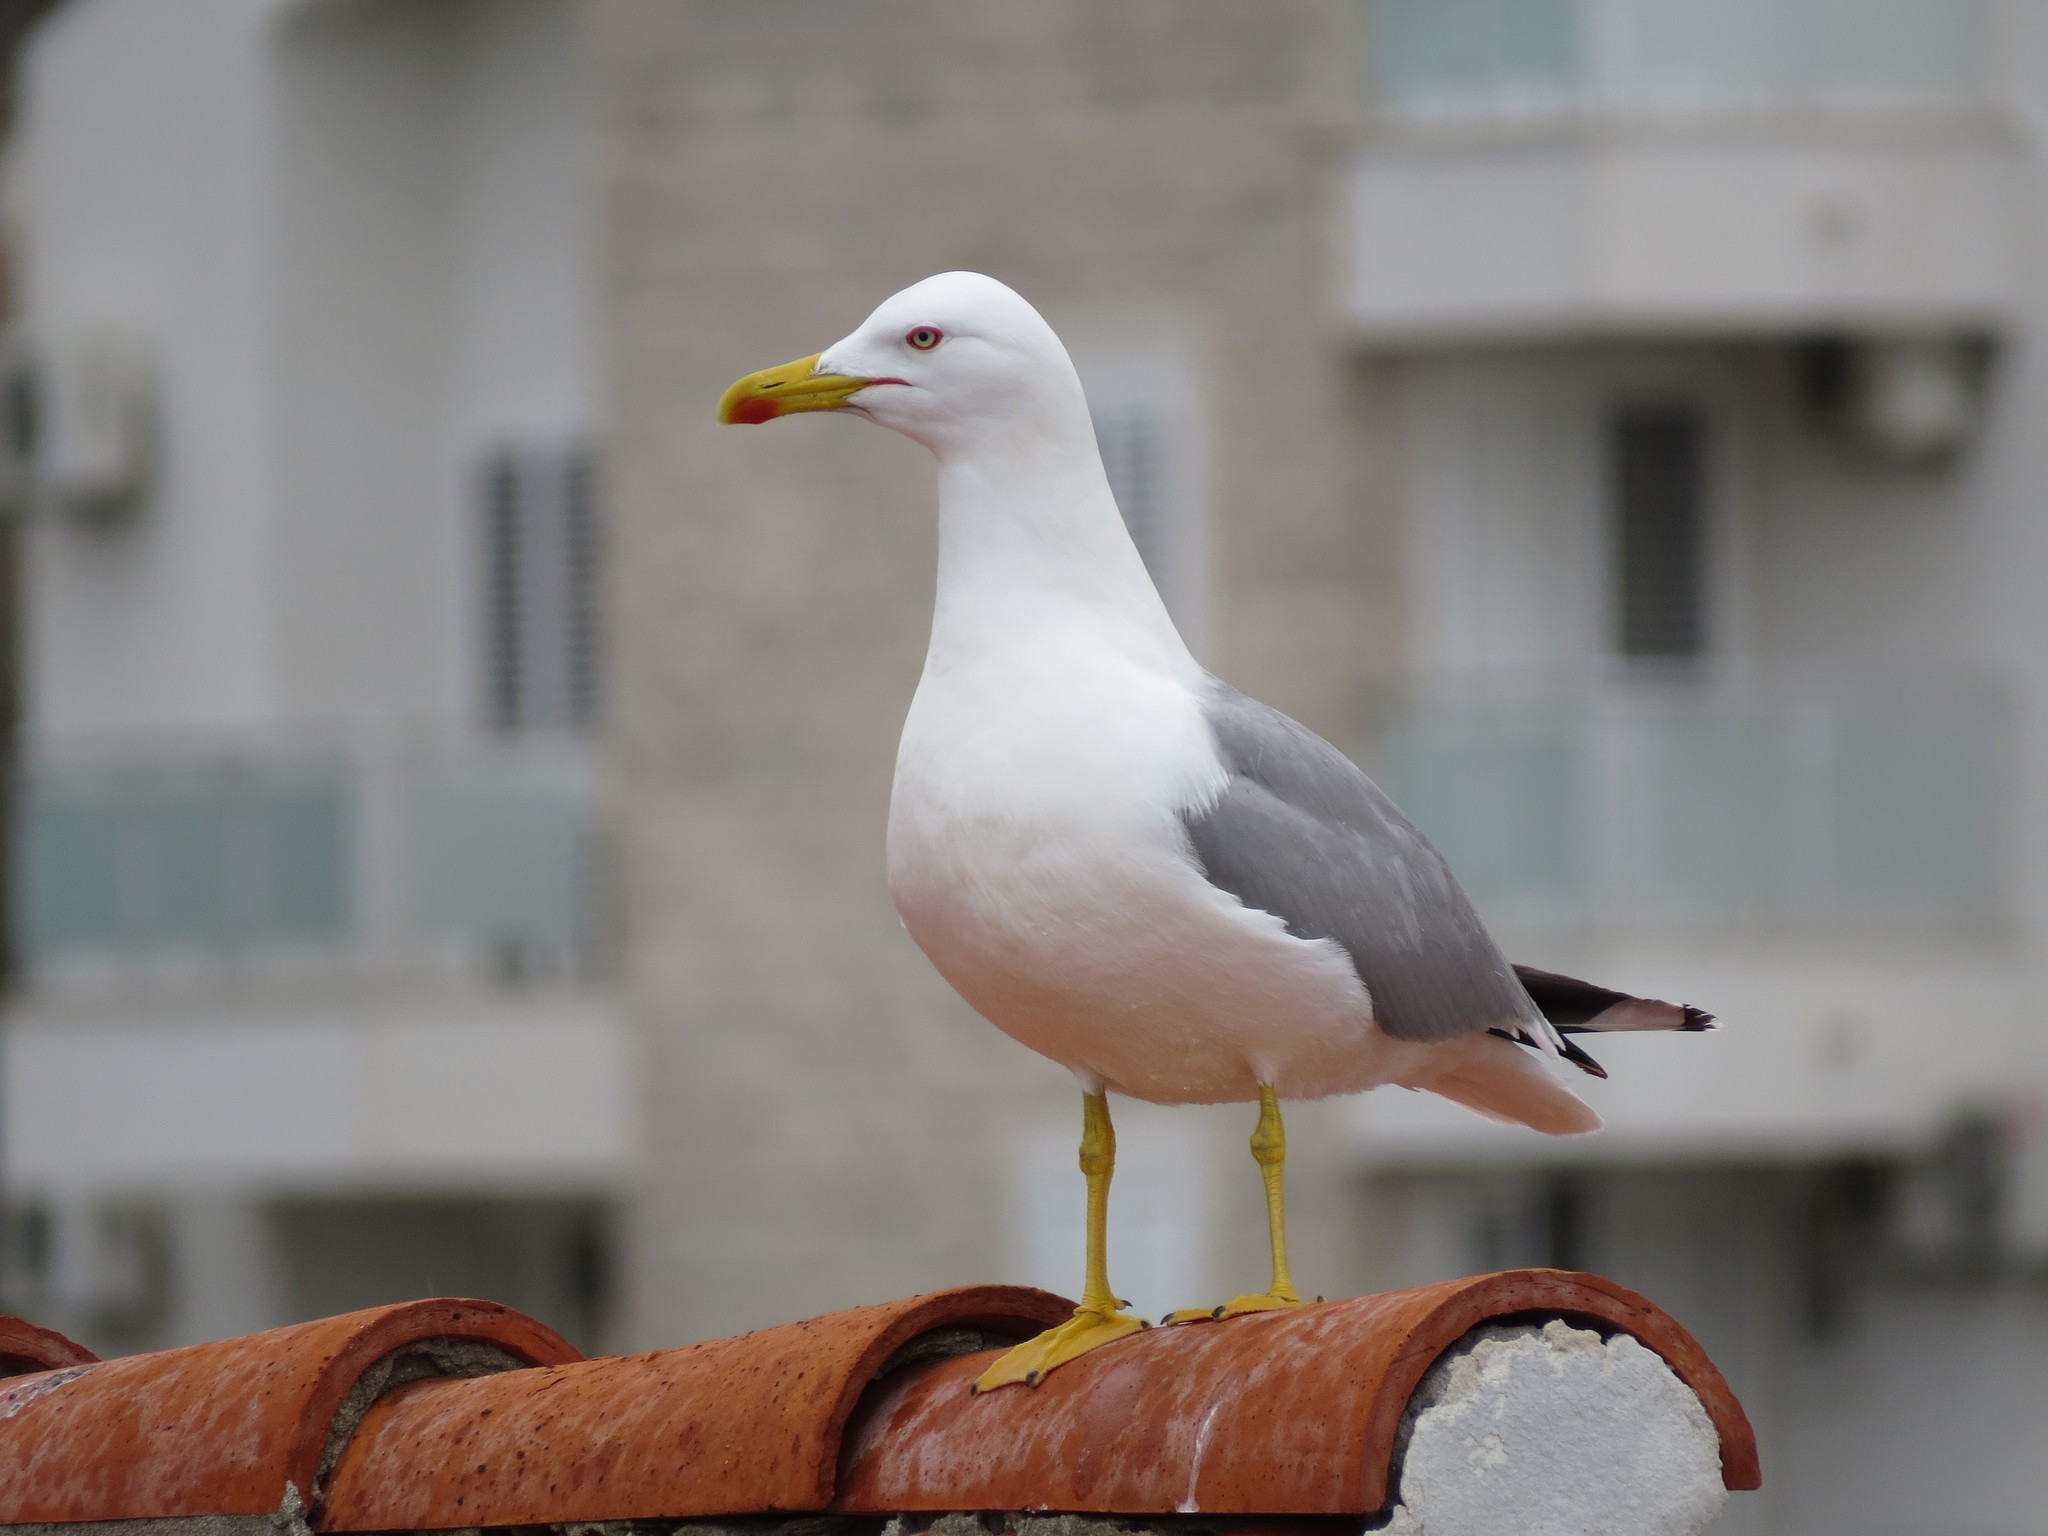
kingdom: Animalia
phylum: Chordata
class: Aves
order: Charadriiformes
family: Laridae
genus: Larus
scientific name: Larus michahellis
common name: Yellow-legged gull
